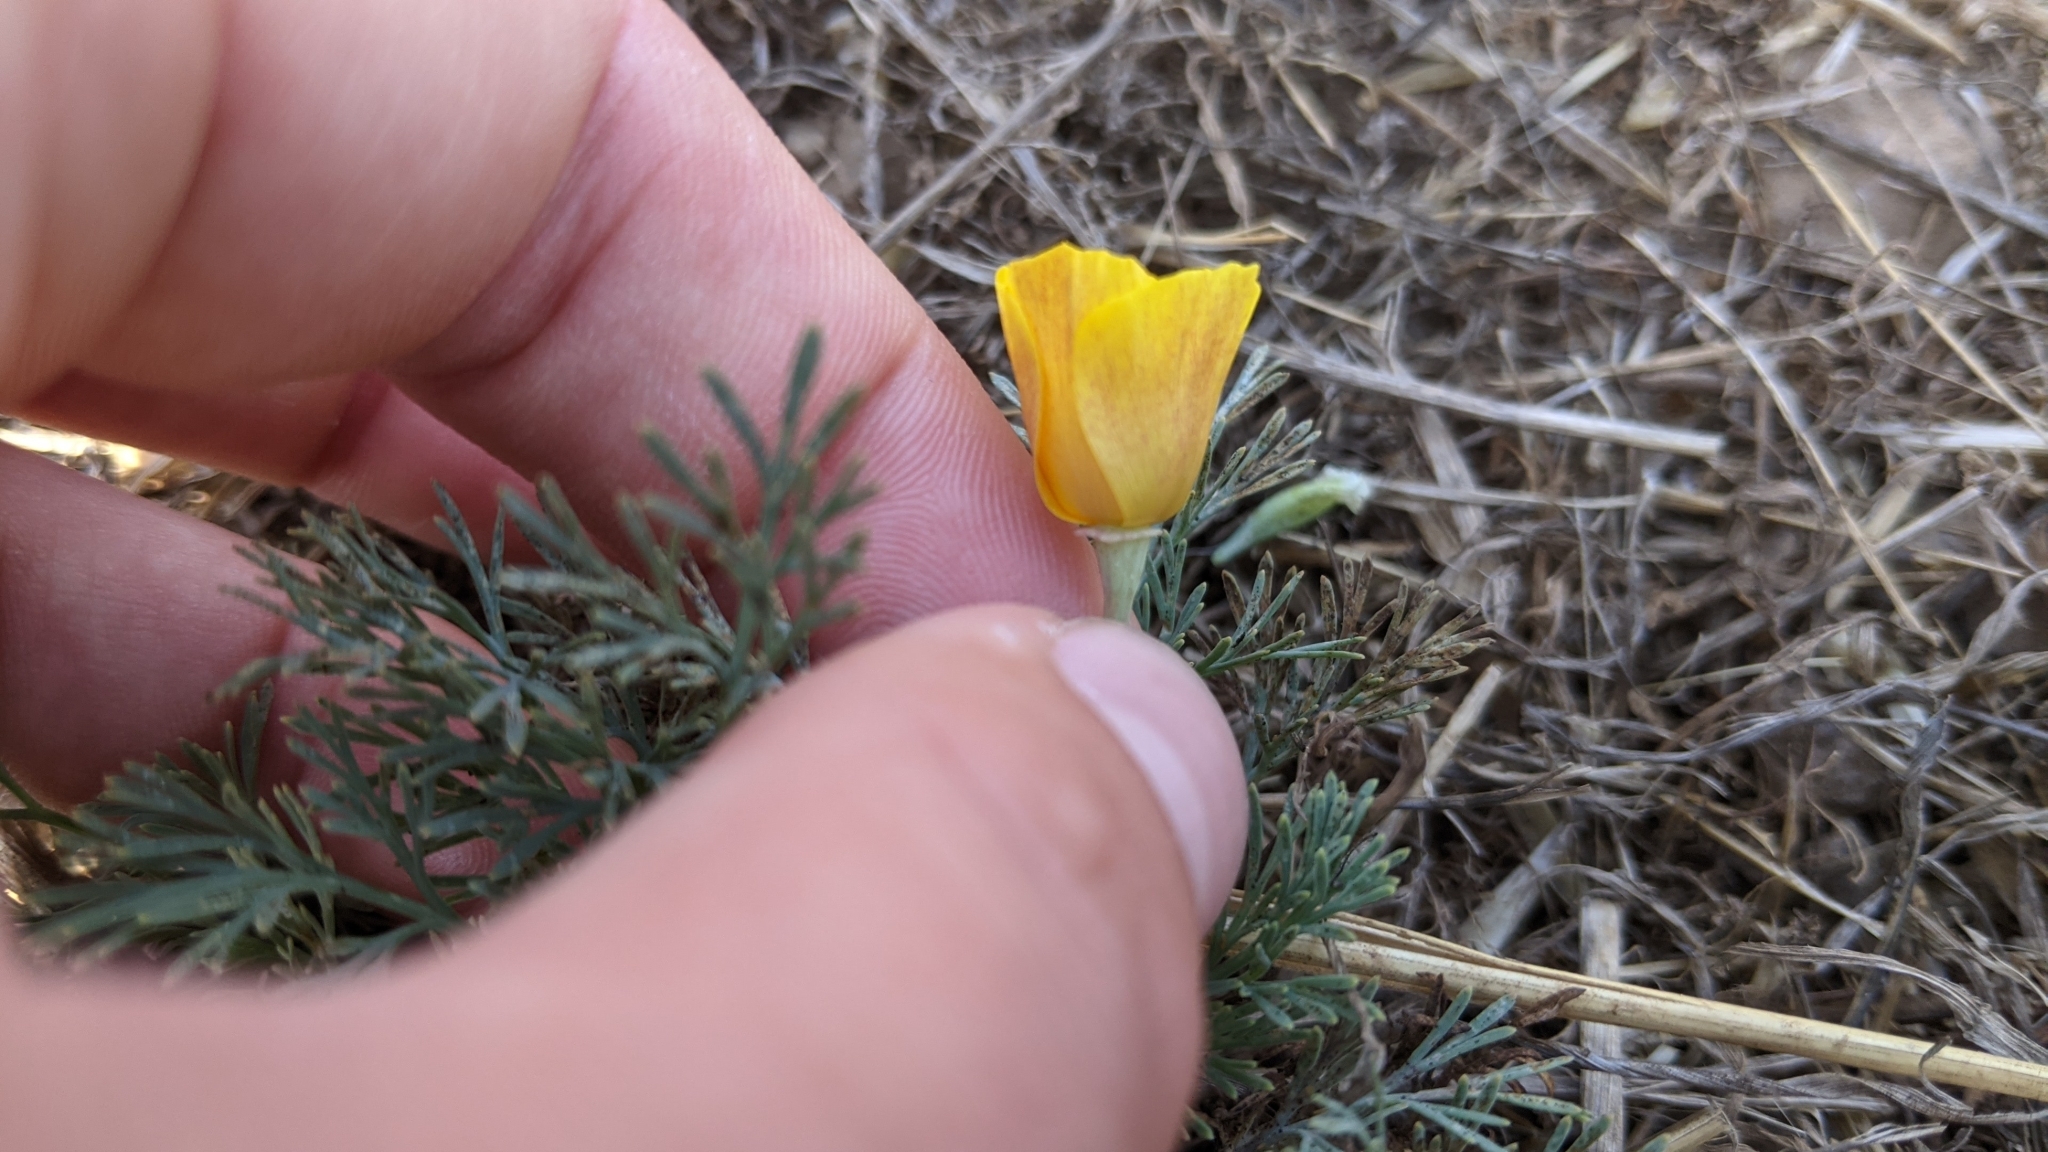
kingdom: Plantae
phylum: Tracheophyta
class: Magnoliopsida
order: Ranunculales
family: Papaveraceae
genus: Eschscholzia
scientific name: Eschscholzia californica
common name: California poppy
